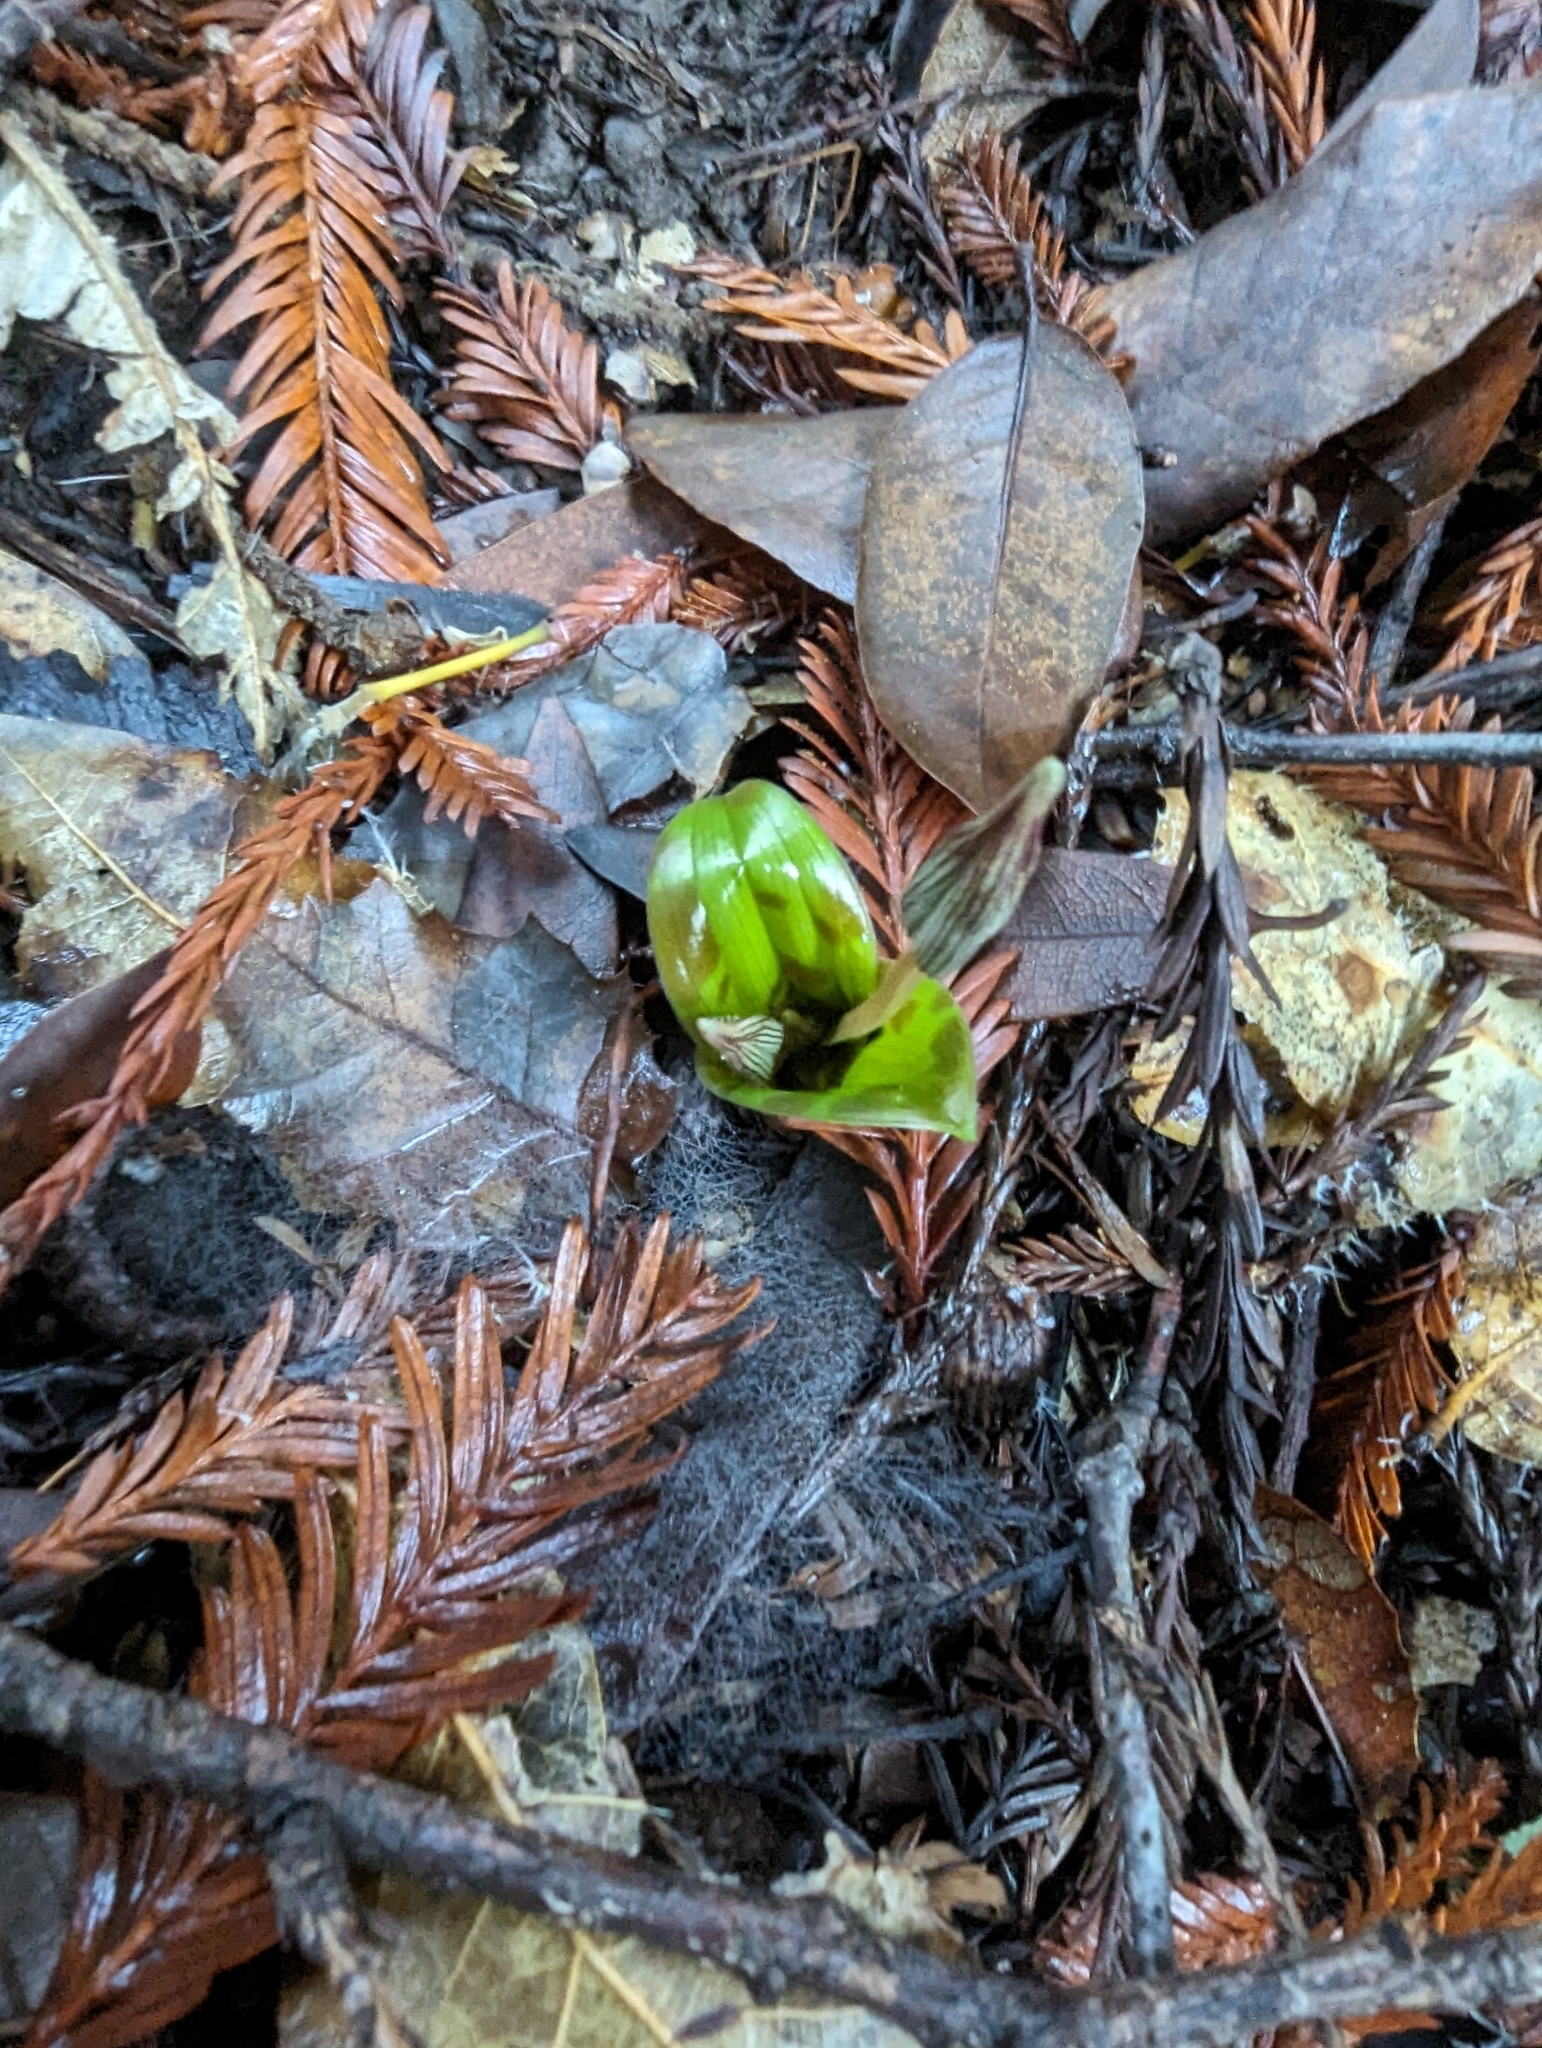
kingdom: Plantae
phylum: Tracheophyta
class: Liliopsida
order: Liliales
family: Liliaceae
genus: Scoliopus
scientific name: Scoliopus bigelovii
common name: Foetid adder's-tongue
